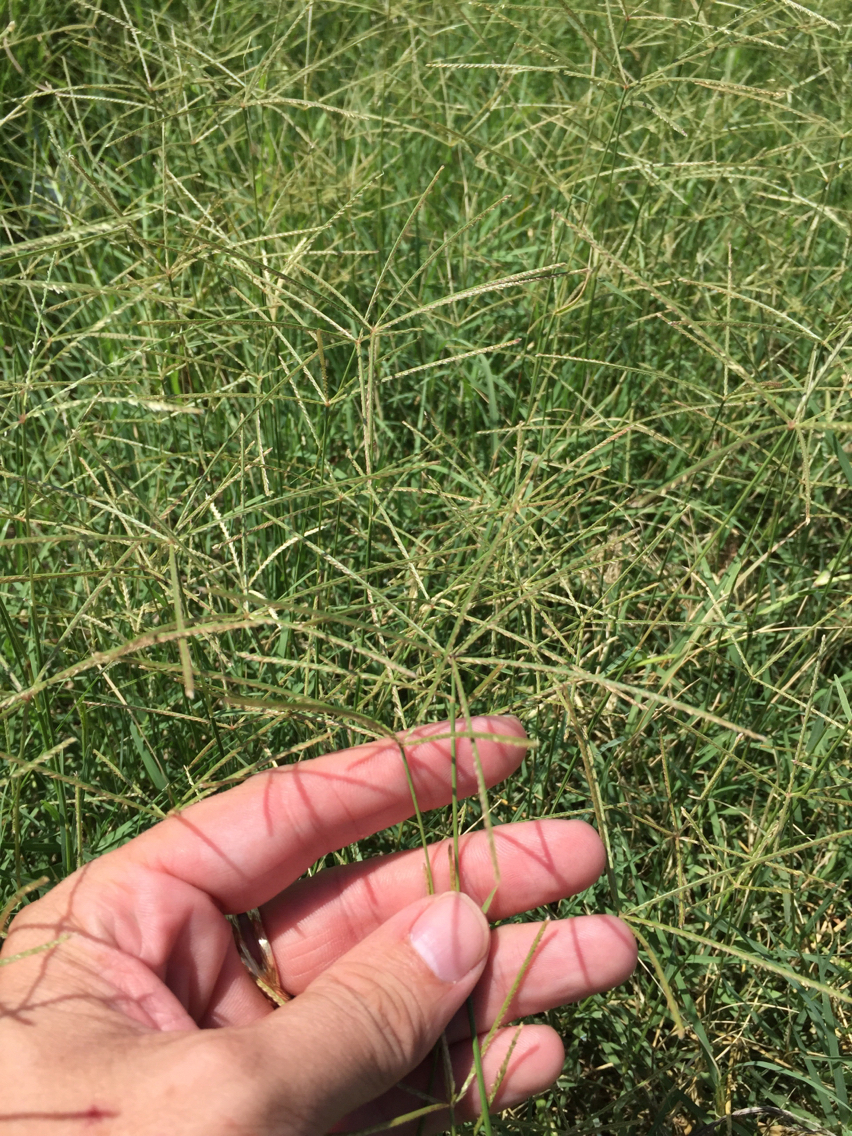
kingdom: Plantae
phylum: Tracheophyta
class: Liliopsida
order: Poales
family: Poaceae
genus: Cynodon
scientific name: Cynodon dactylon
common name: Bermuda grass
